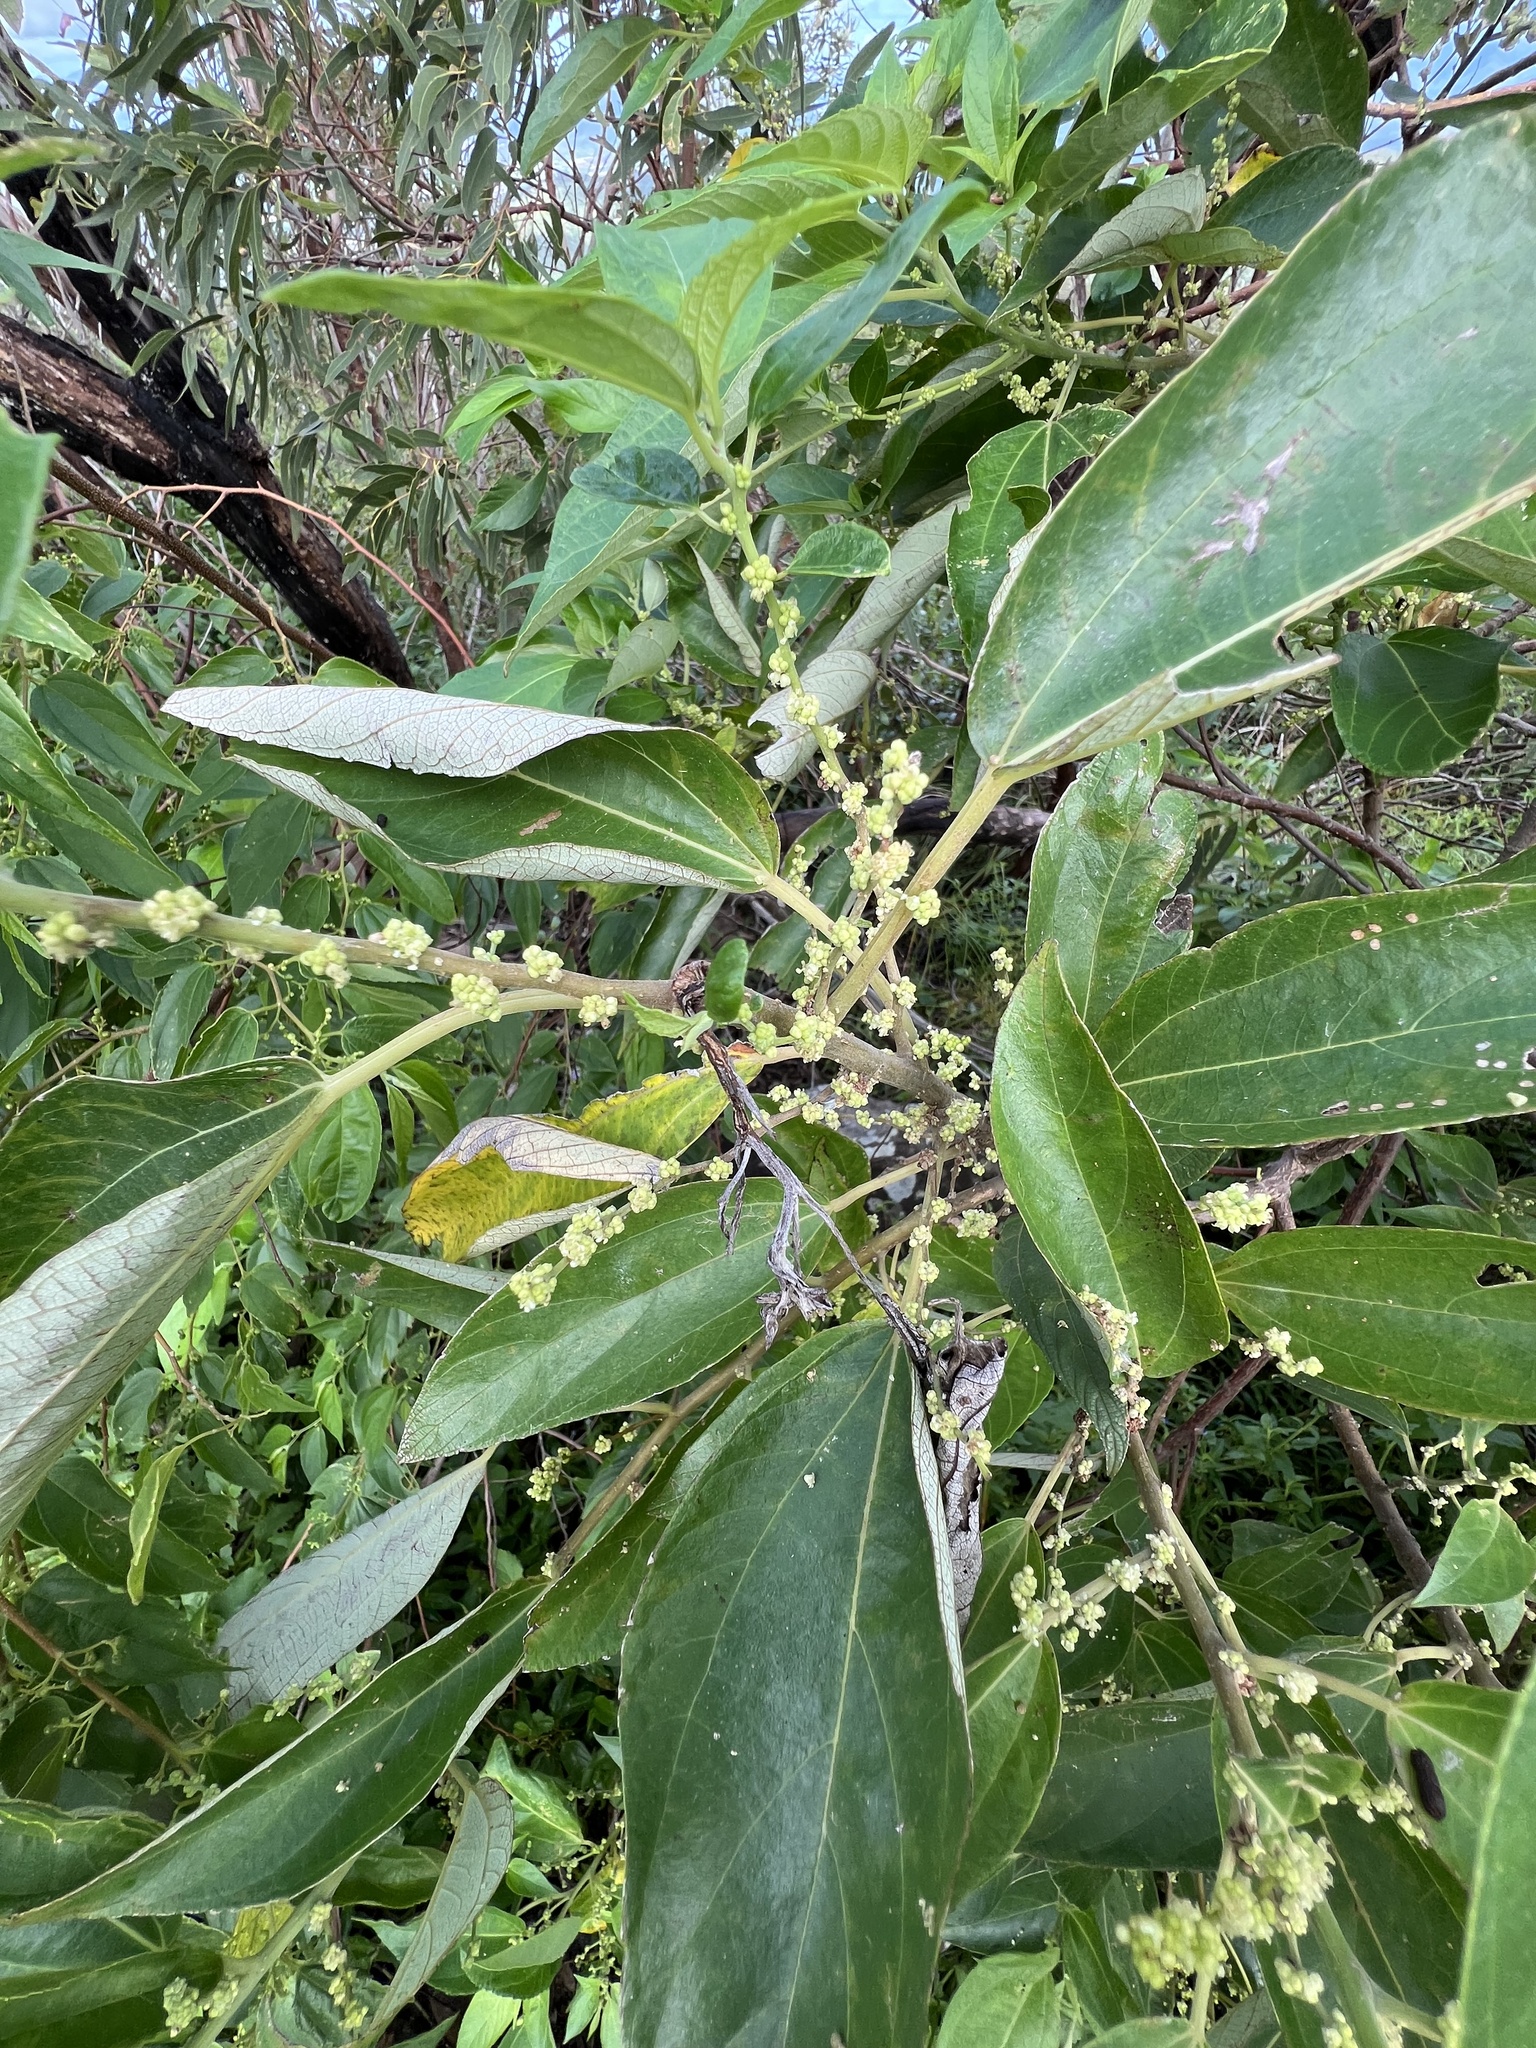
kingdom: Plantae
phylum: Tracheophyta
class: Magnoliopsida
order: Rosales
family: Urticaceae
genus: Pipturus
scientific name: Pipturus argenteus
